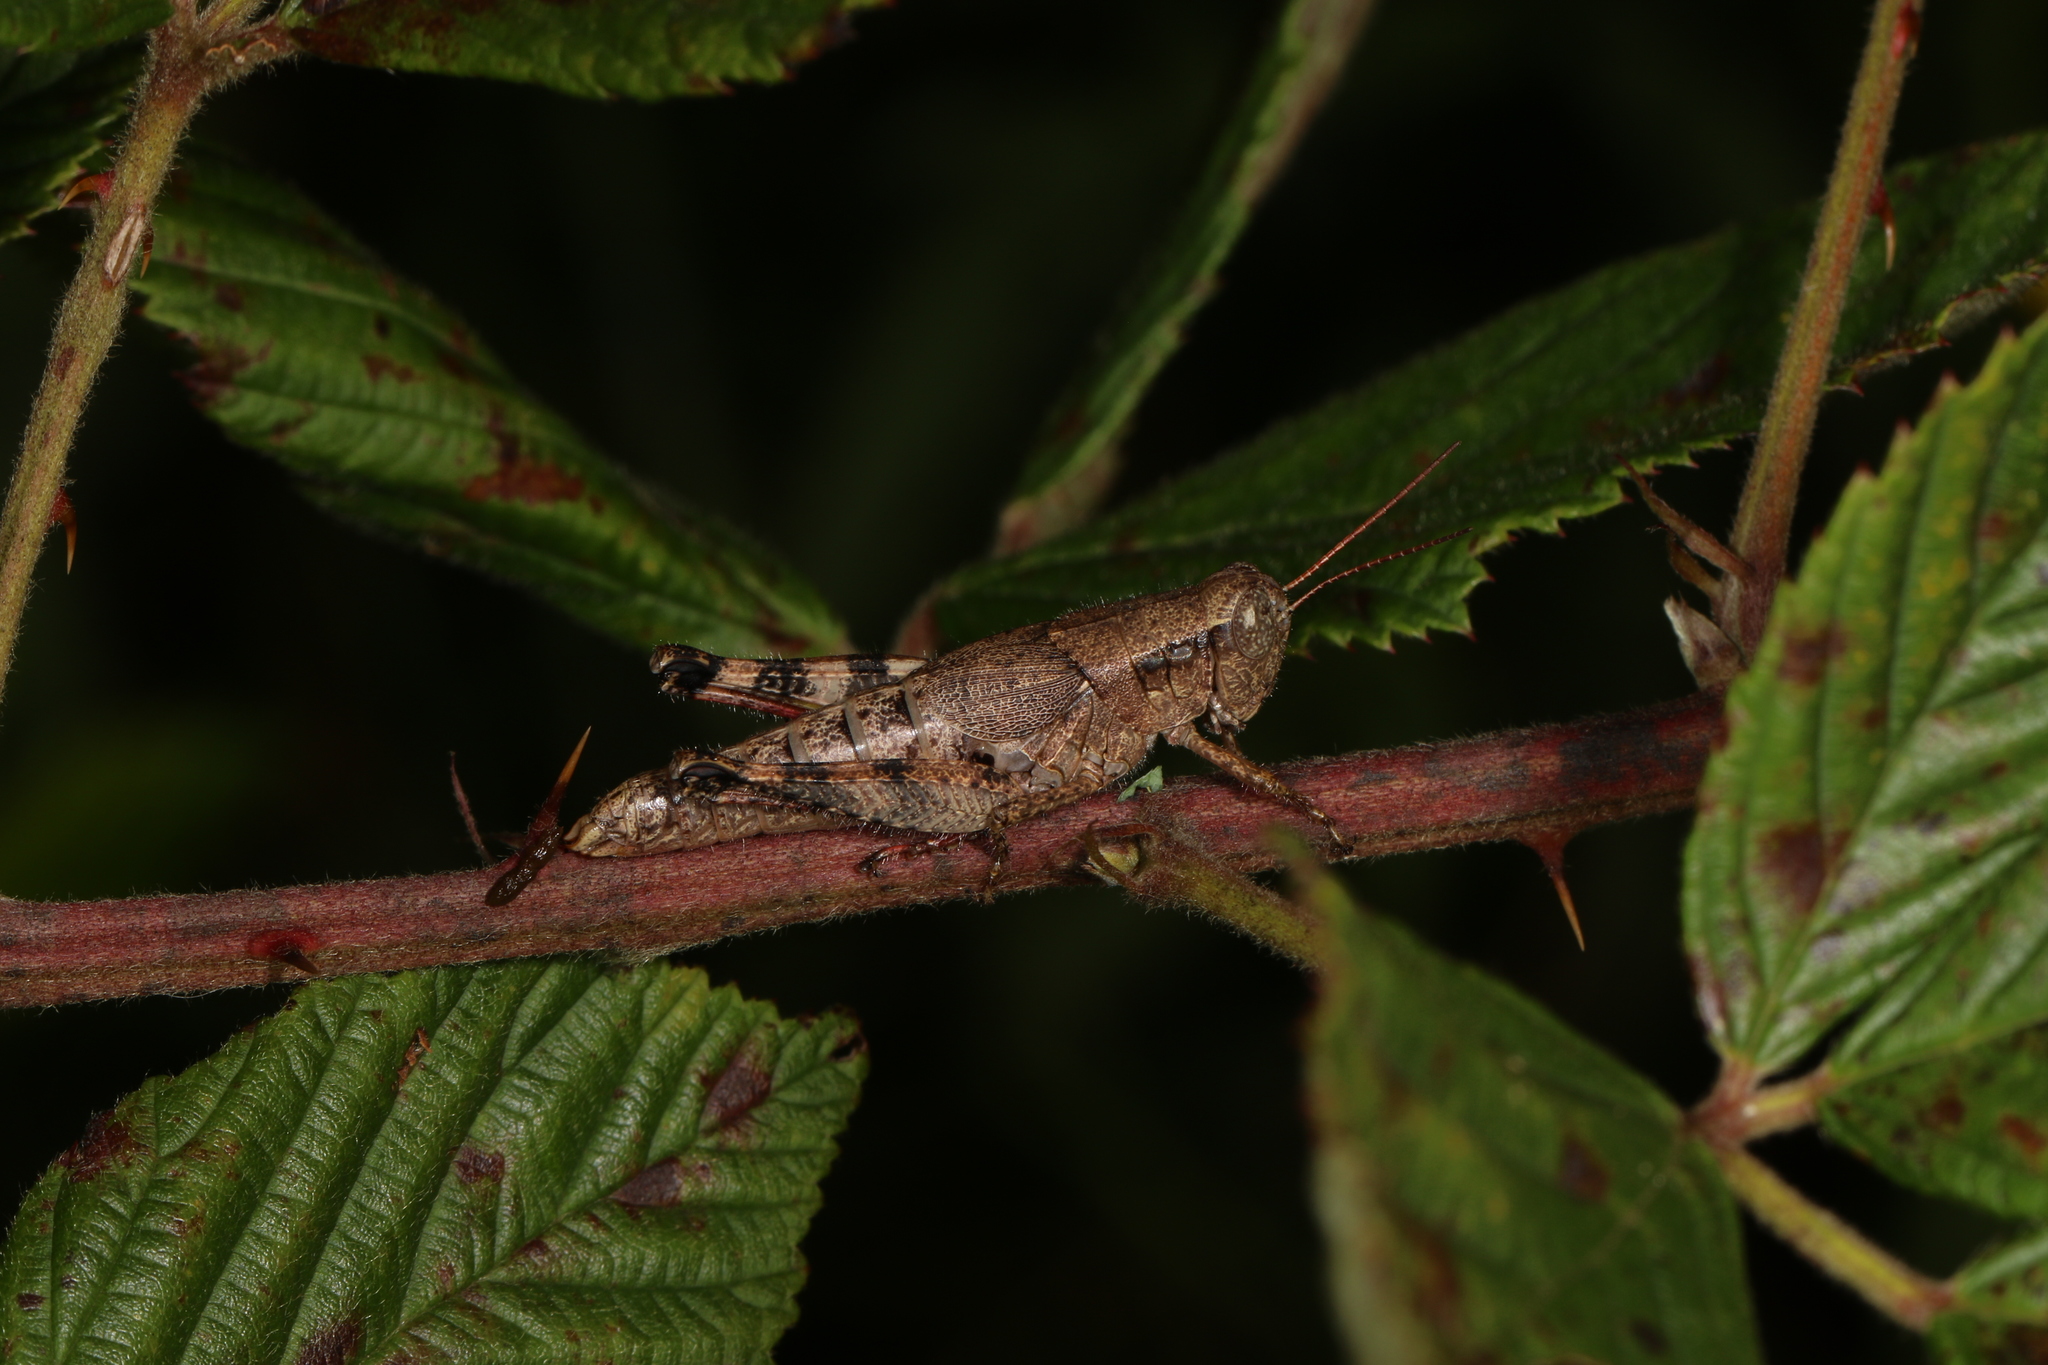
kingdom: Animalia
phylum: Arthropoda
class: Insecta
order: Orthoptera
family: Acrididae
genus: Melanoplus
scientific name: Melanoplus scudderi
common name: Scudder's short-winged locust
